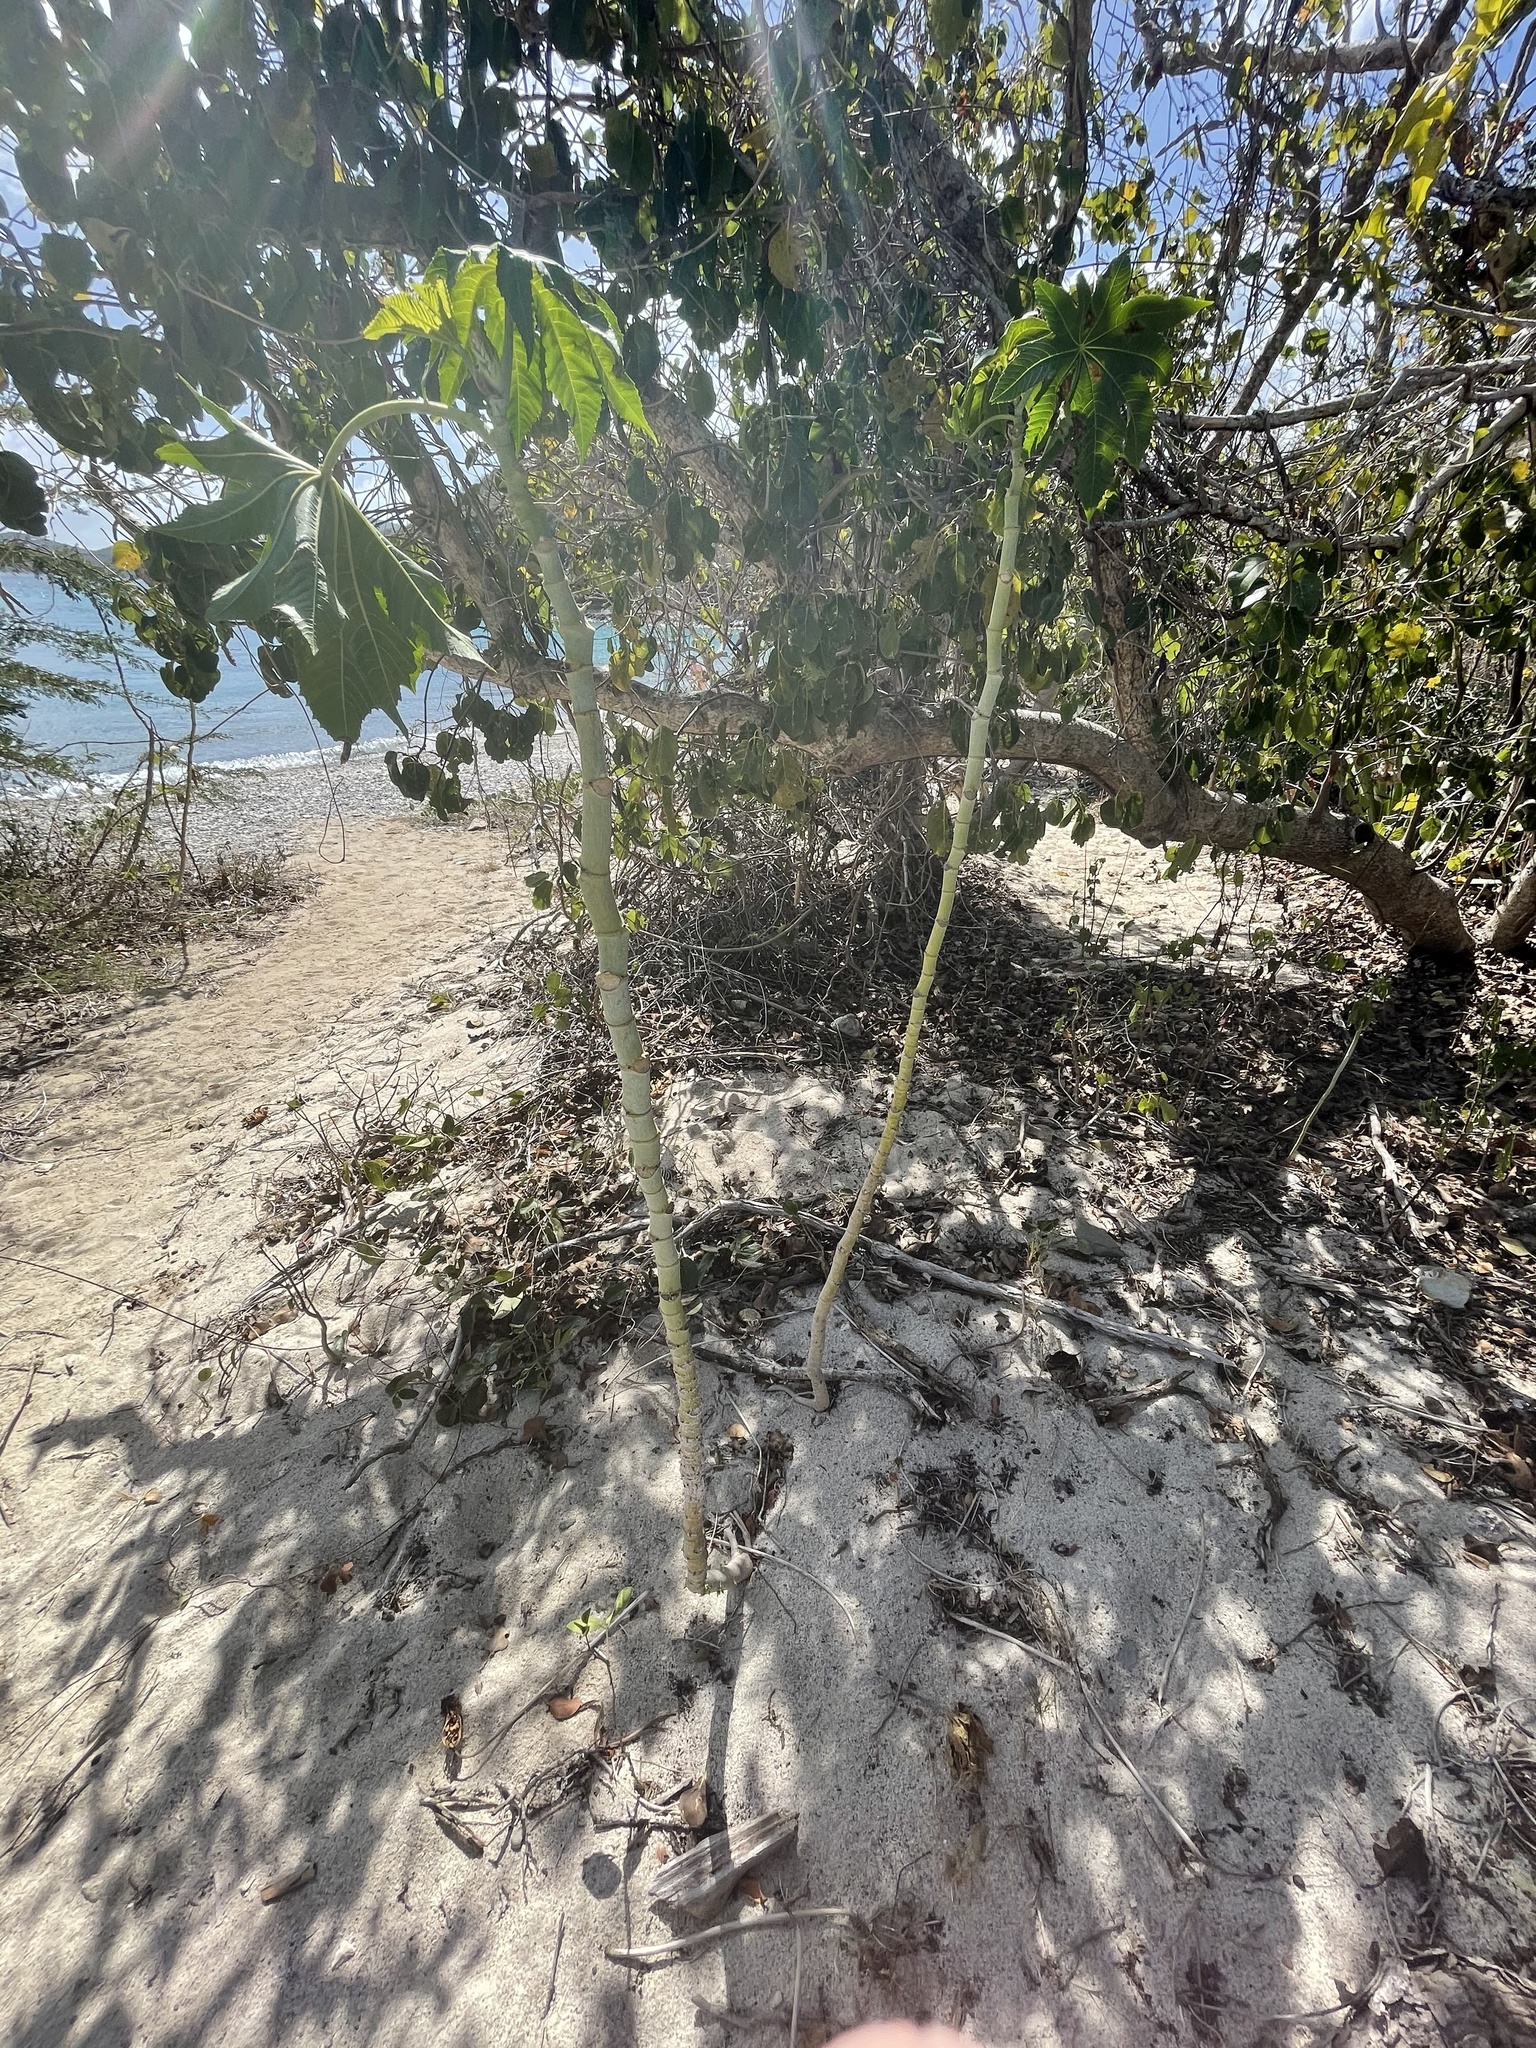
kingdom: Plantae
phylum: Tracheophyta
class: Magnoliopsida
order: Malpighiales
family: Euphorbiaceae
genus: Ricinus
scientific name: Ricinus communis
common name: Castor-oil-plant
